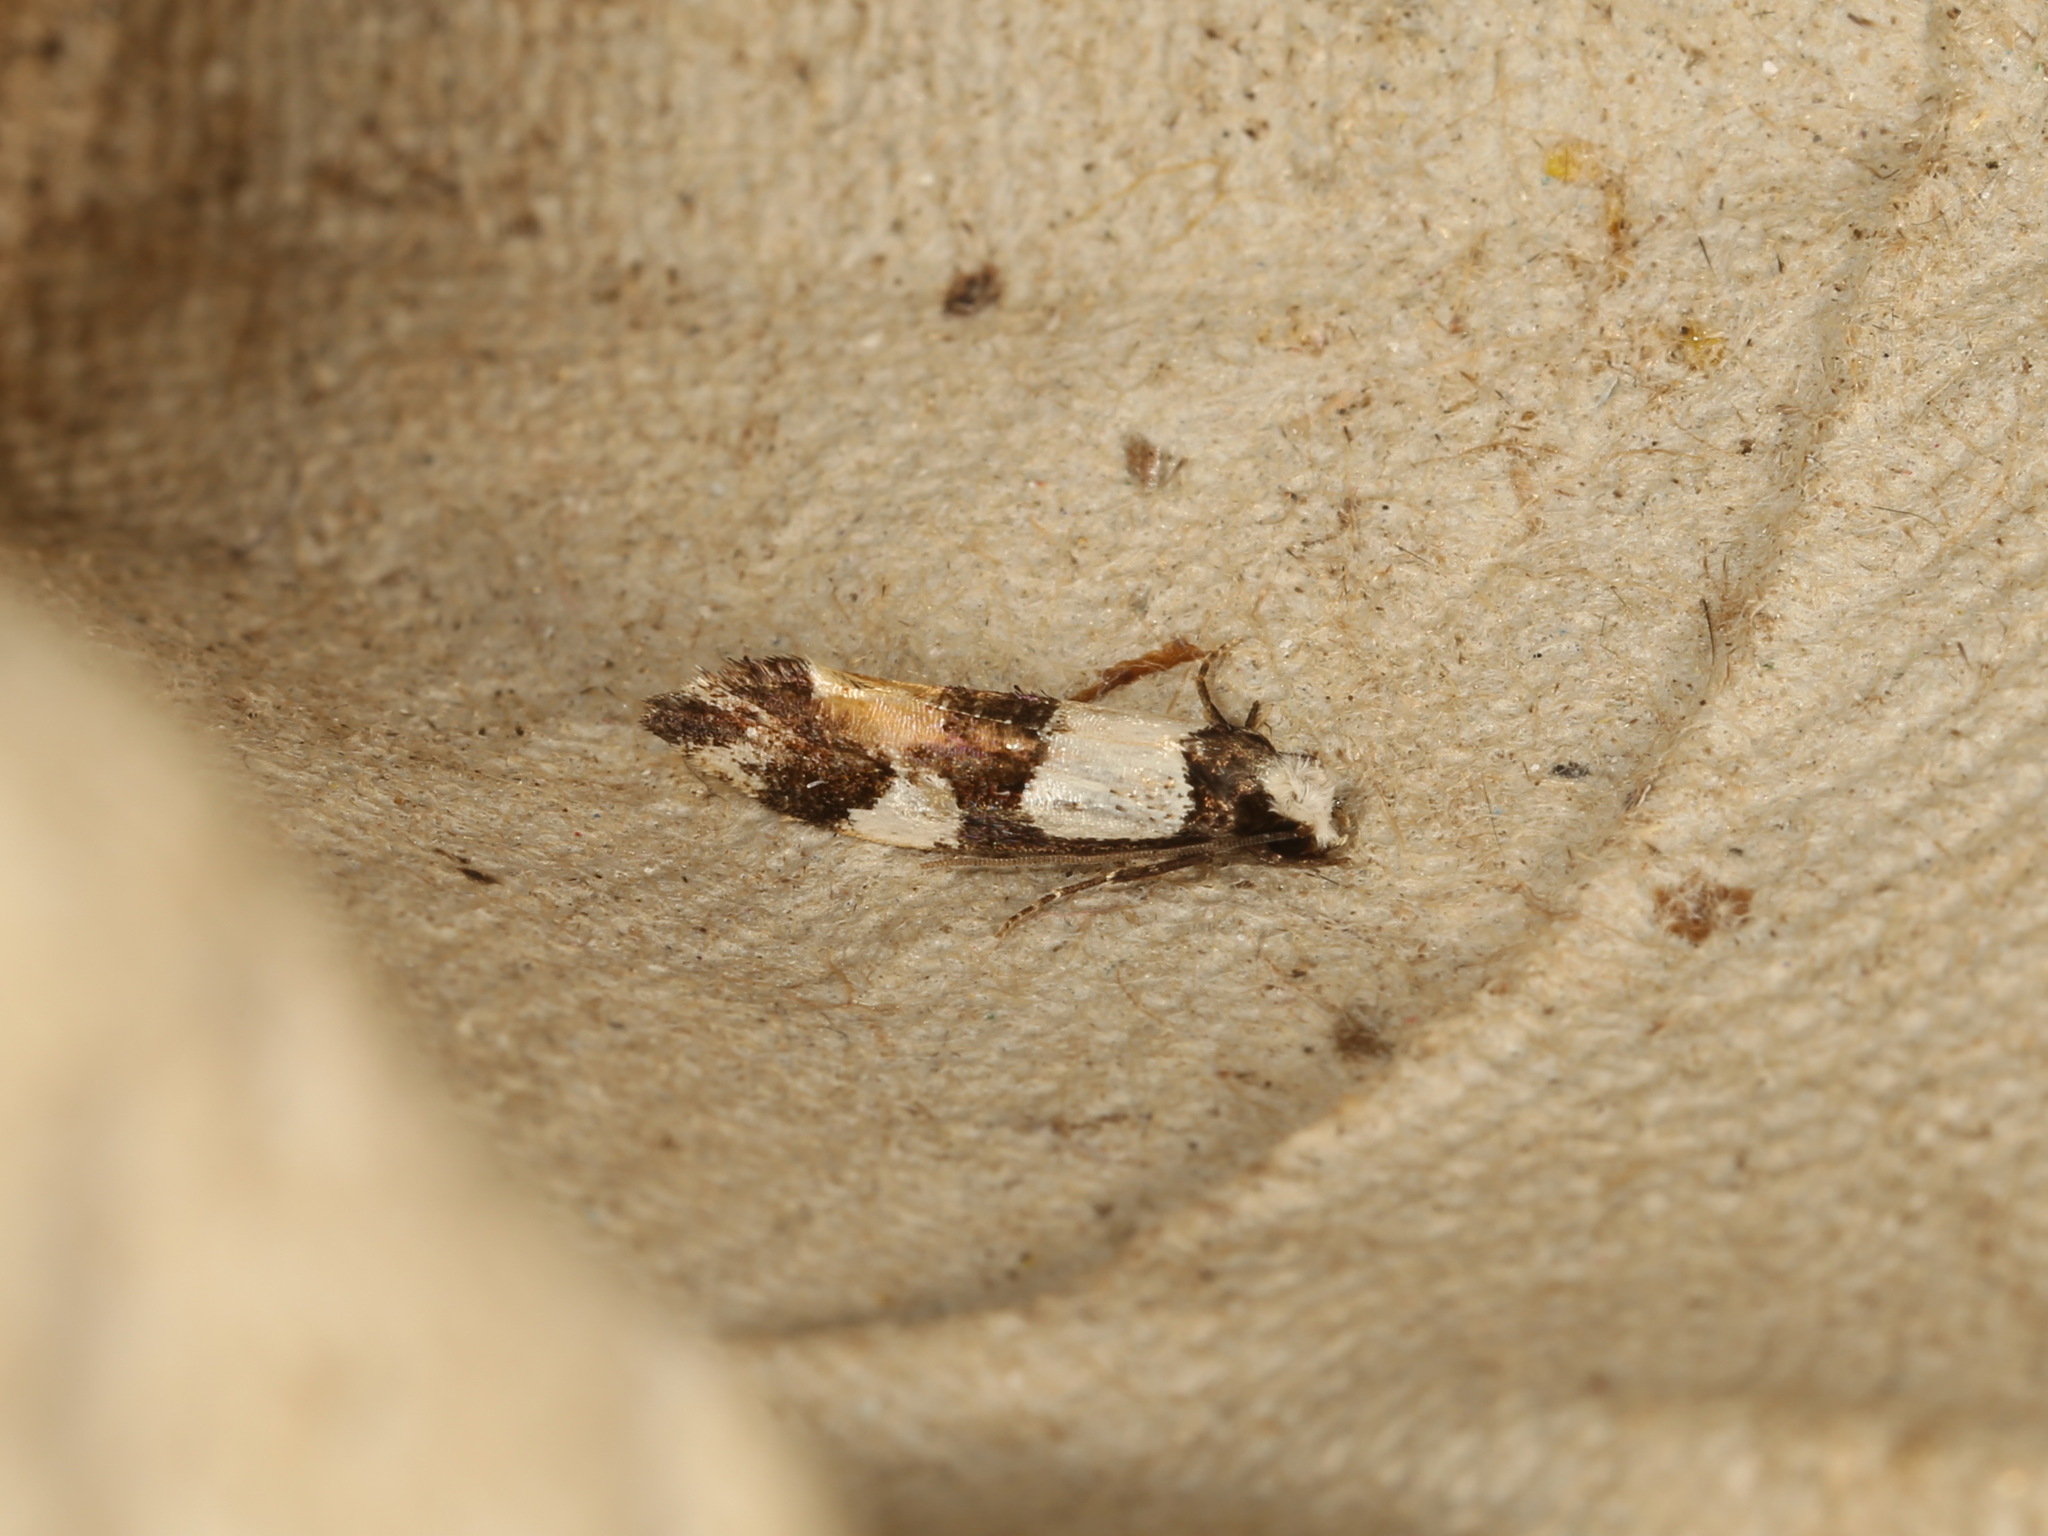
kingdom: Animalia
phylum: Arthropoda
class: Insecta
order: Lepidoptera
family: Tineidae
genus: Monopis
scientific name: Monopis icterogastra
